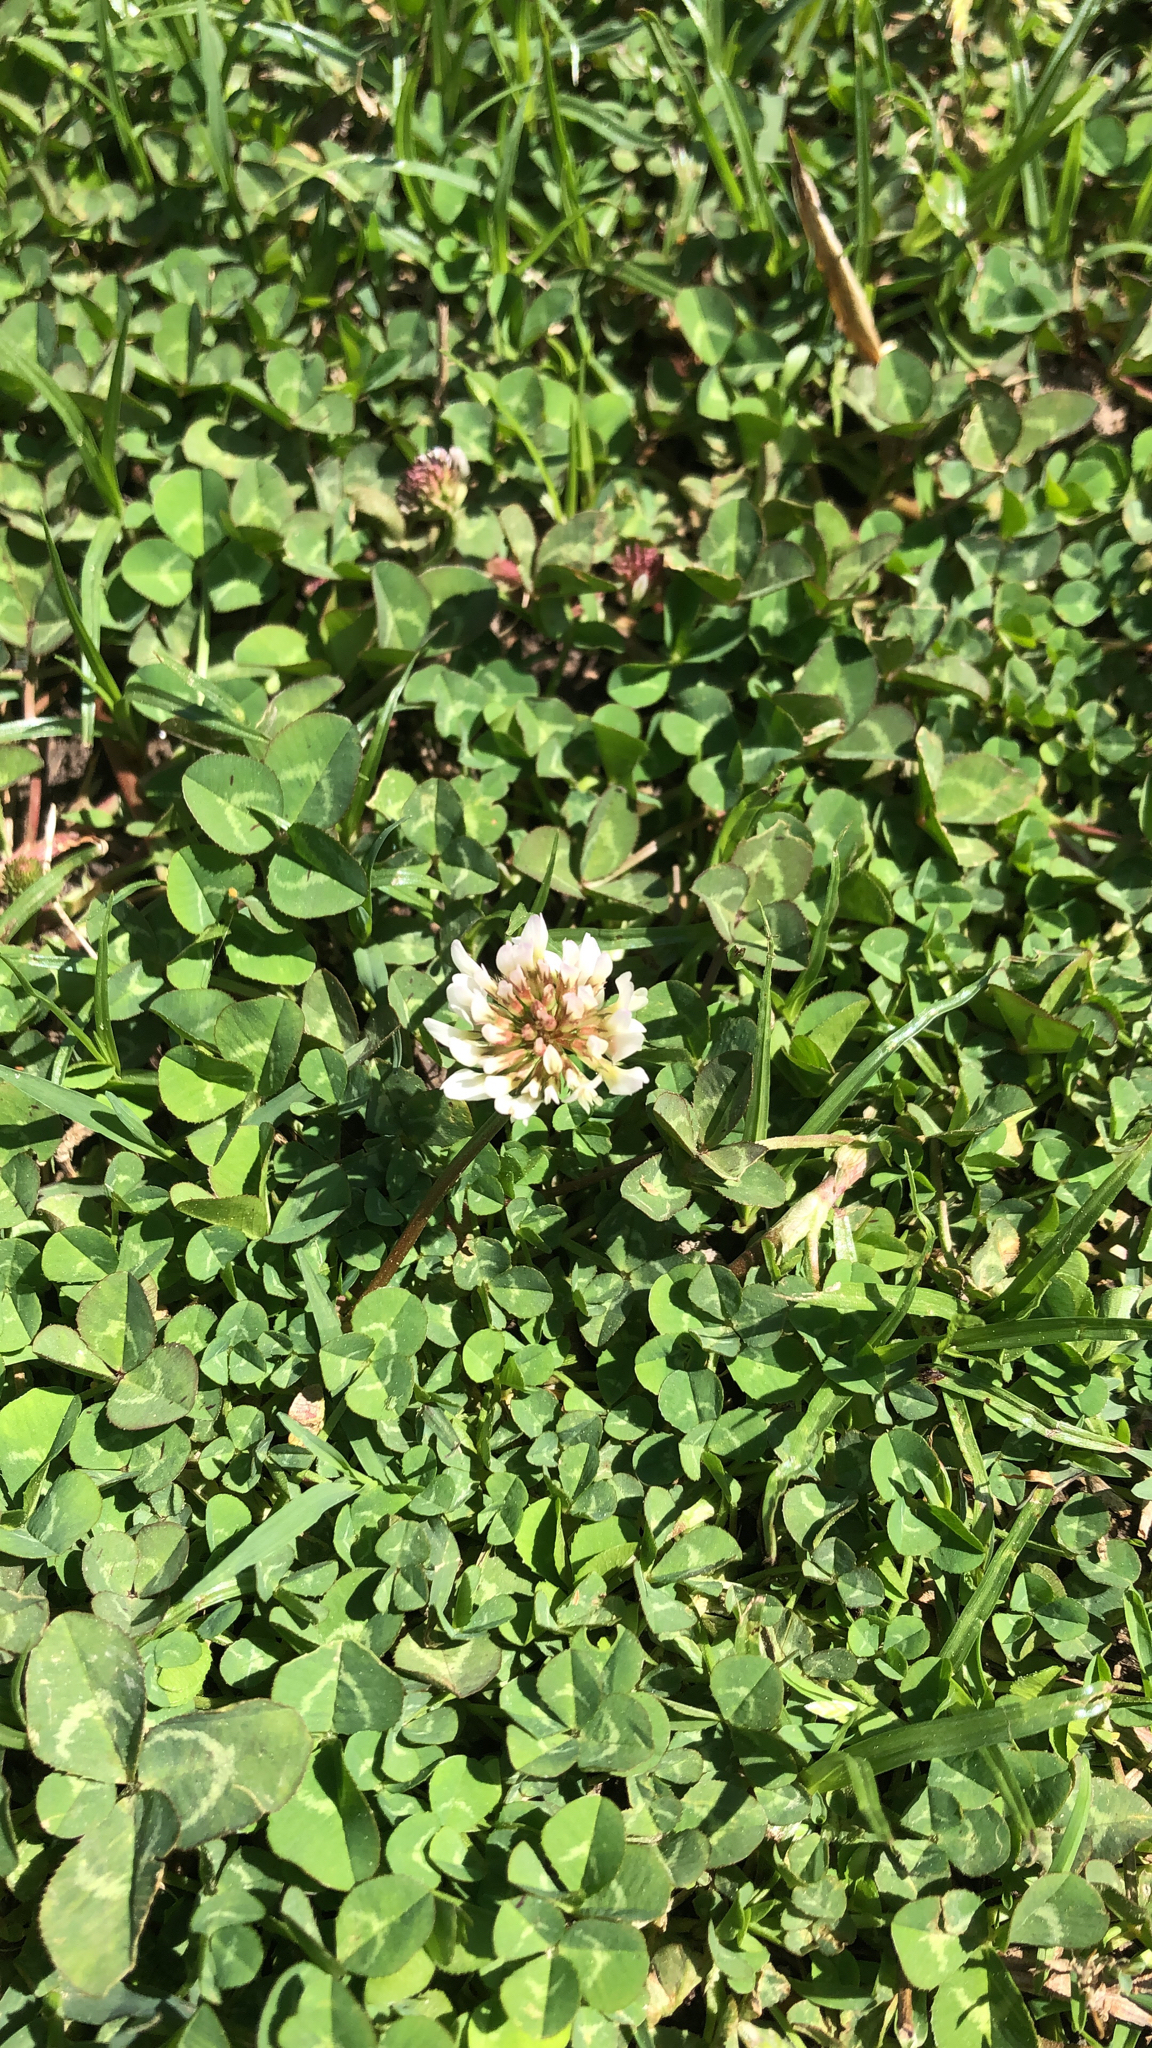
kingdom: Plantae
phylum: Tracheophyta
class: Magnoliopsida
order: Fabales
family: Fabaceae
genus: Trifolium
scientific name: Trifolium repens
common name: White clover
